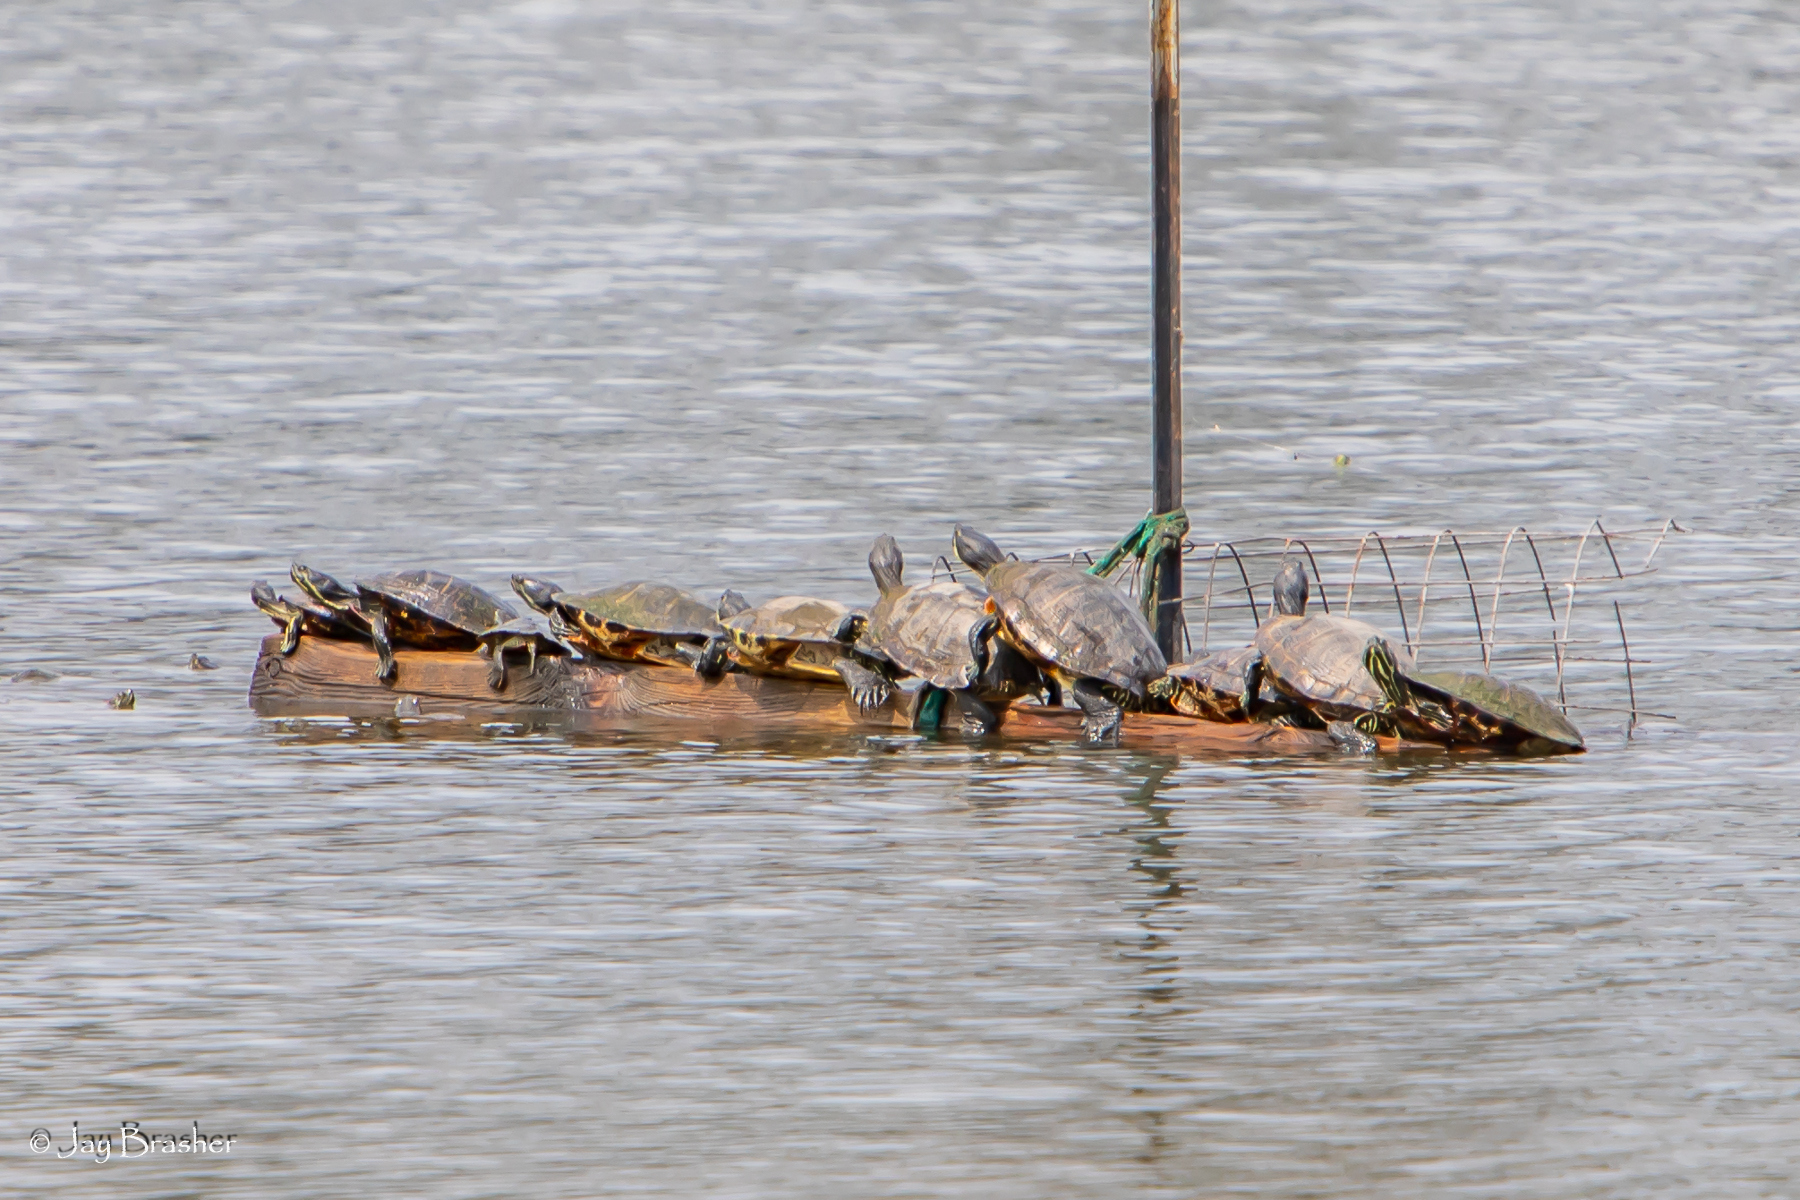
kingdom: Animalia
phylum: Chordata
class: Testudines
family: Emydidae
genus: Trachemys
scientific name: Trachemys scripta
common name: Slider
